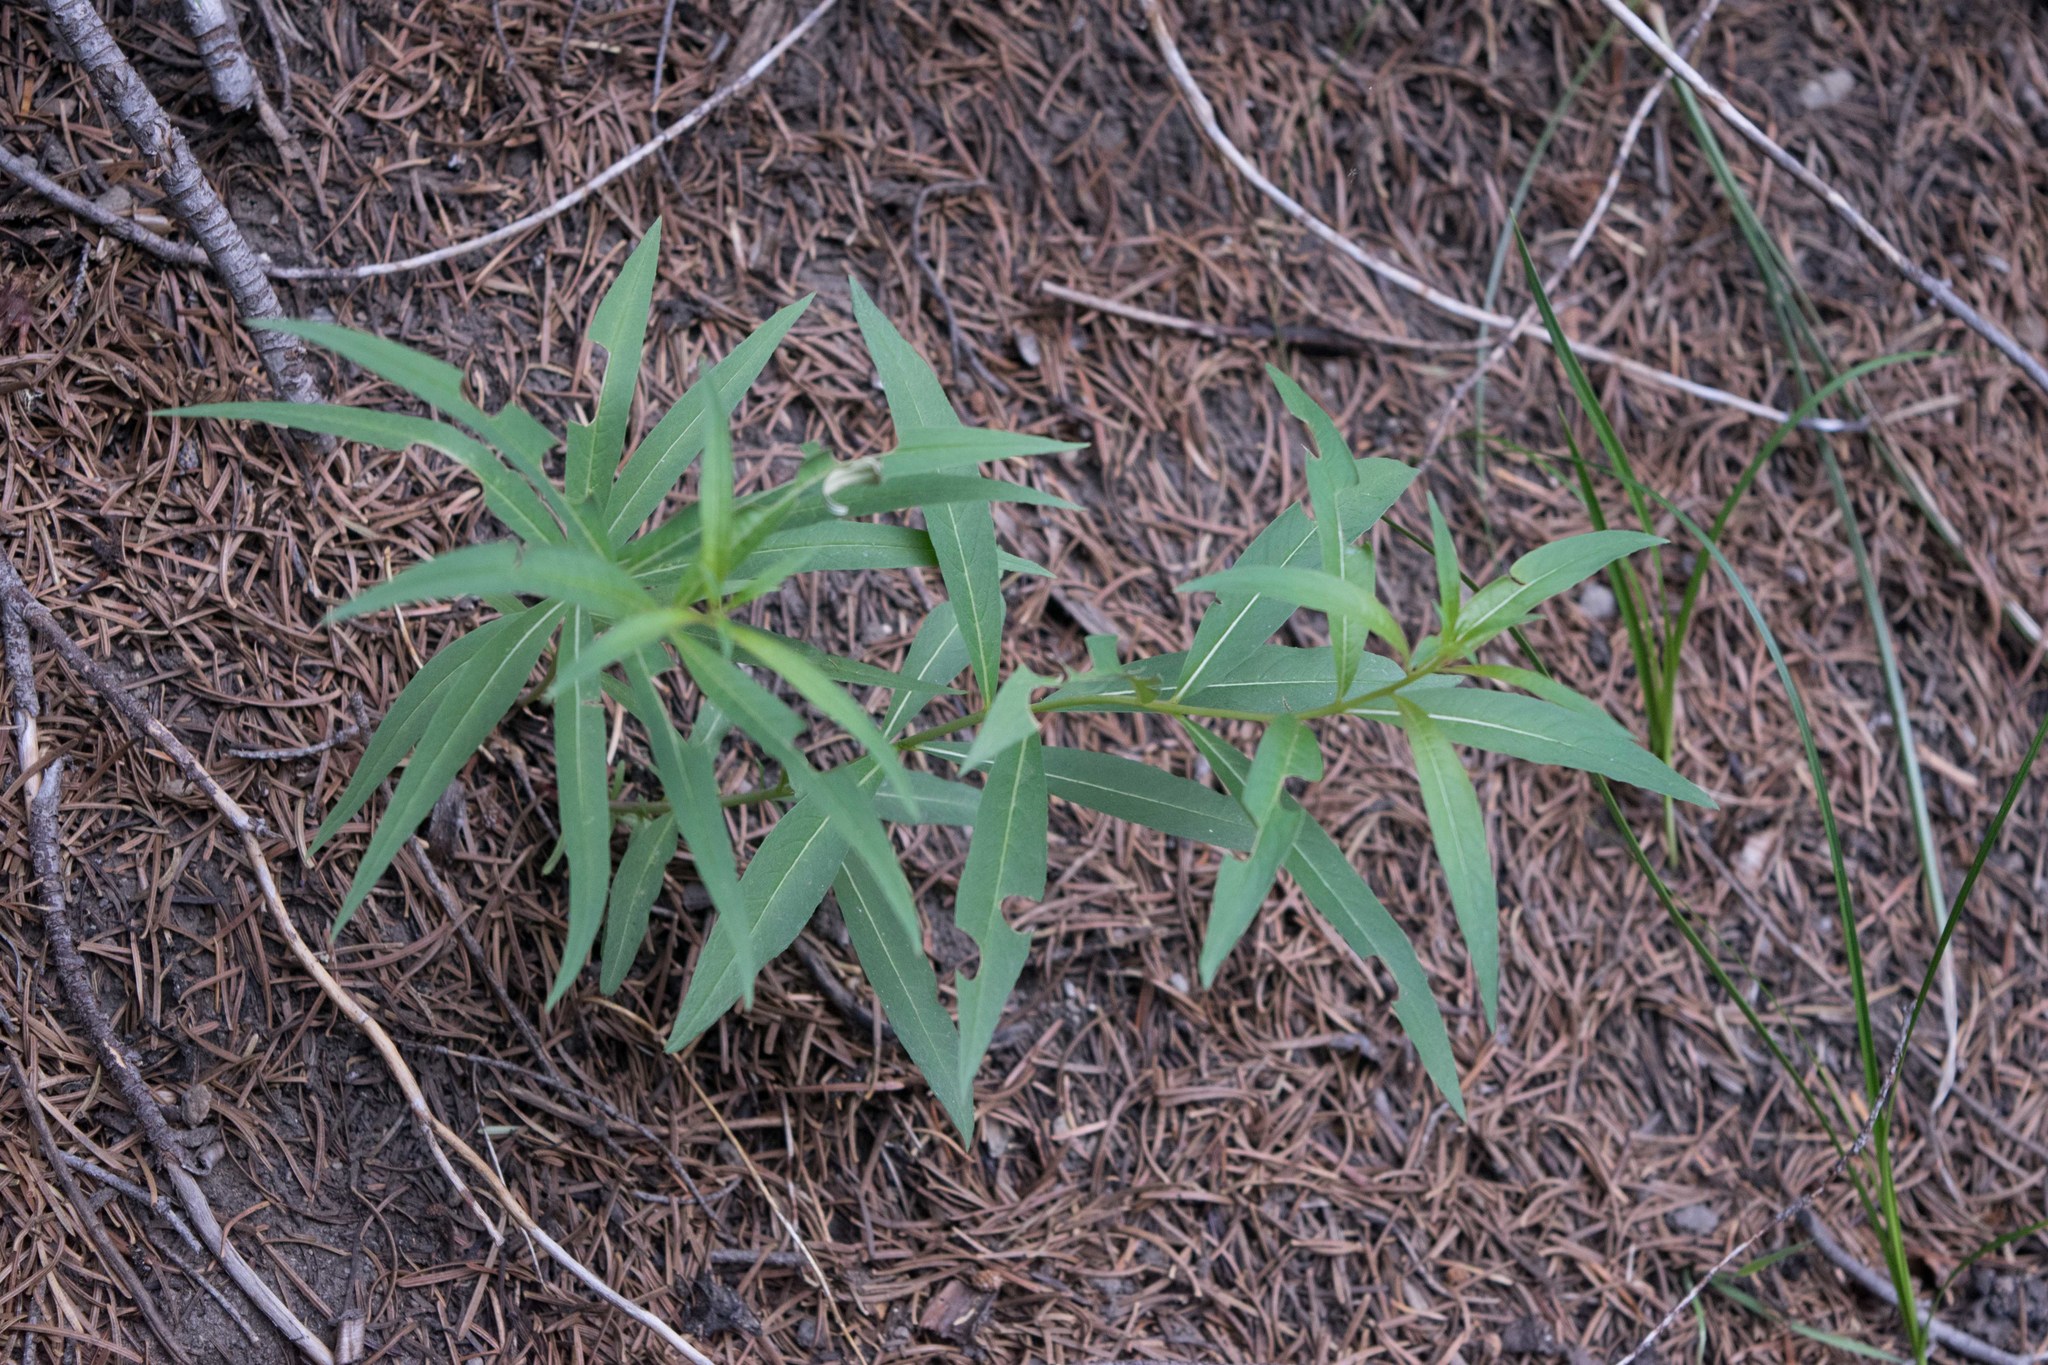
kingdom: Plantae
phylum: Tracheophyta
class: Magnoliopsida
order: Myrtales
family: Onagraceae
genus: Chamaenerion
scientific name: Chamaenerion angustifolium
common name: Fireweed
